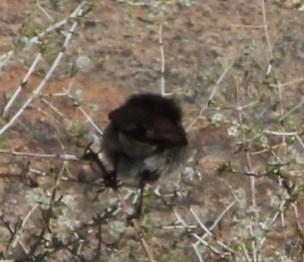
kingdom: Animalia
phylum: Chordata
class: Aves
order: Passeriformes
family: Nectariniidae
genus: Cinnyris
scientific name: Cinnyris fuscus
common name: Dusky sunbird
